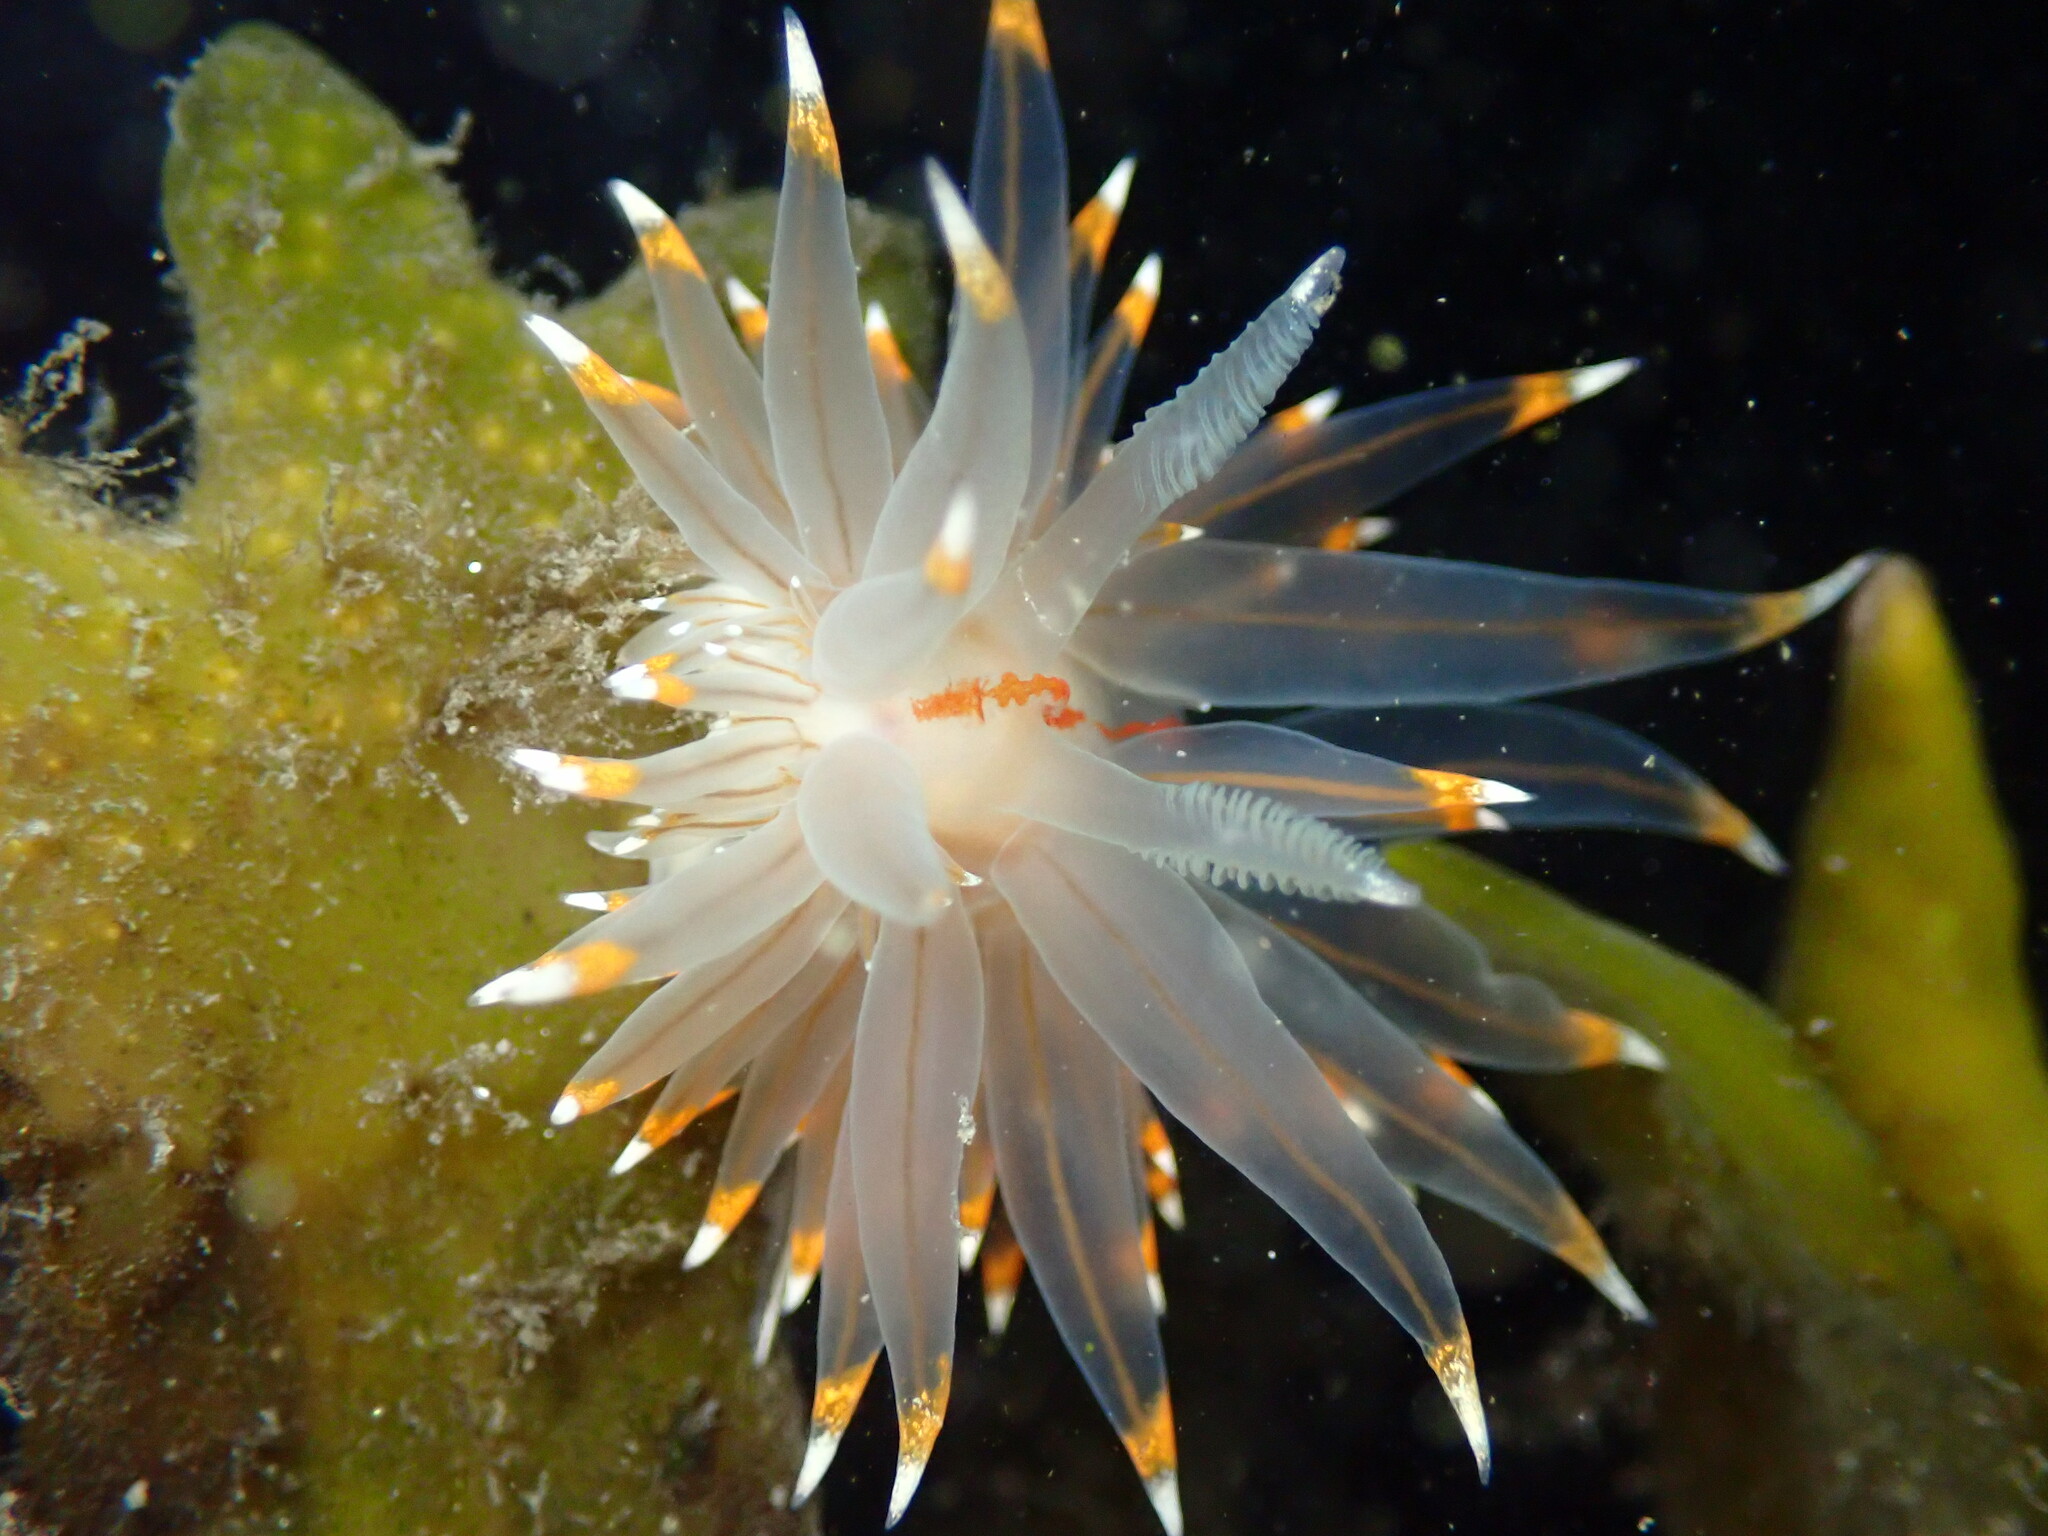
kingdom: Animalia
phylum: Mollusca
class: Gastropoda
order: Nudibranchia
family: Janolidae
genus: Antiopella
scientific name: Antiopella fusca
